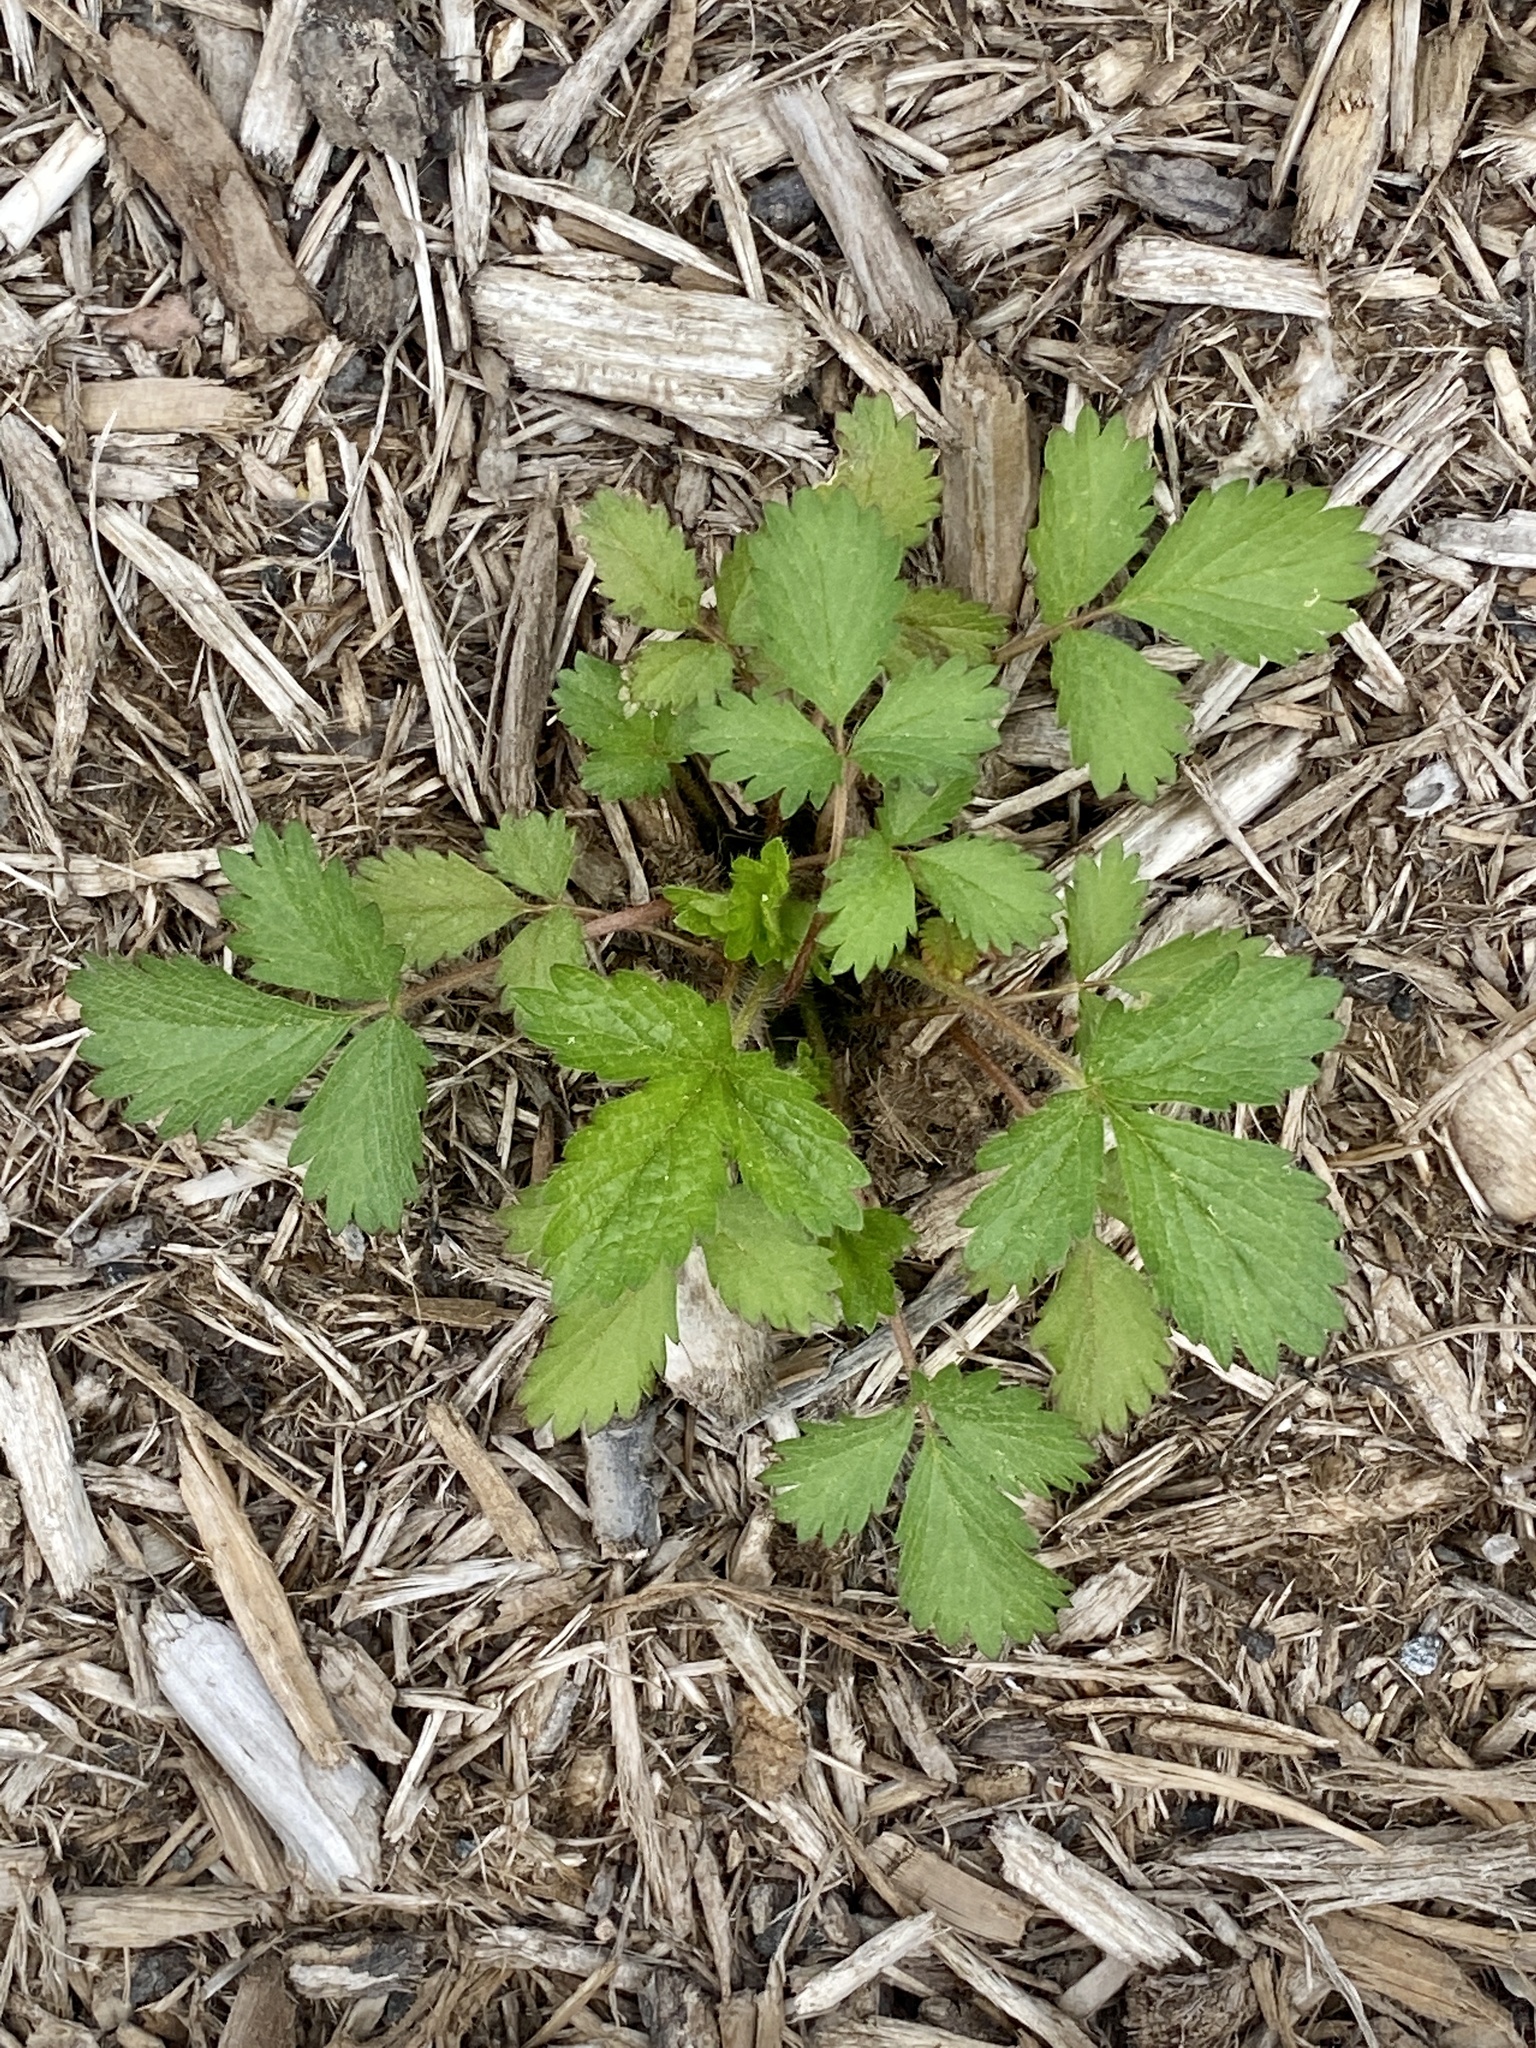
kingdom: Plantae
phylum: Tracheophyta
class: Magnoliopsida
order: Rosales
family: Rosaceae
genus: Potentilla
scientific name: Potentilla norvegica
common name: Ternate-leaved cinquefoil
